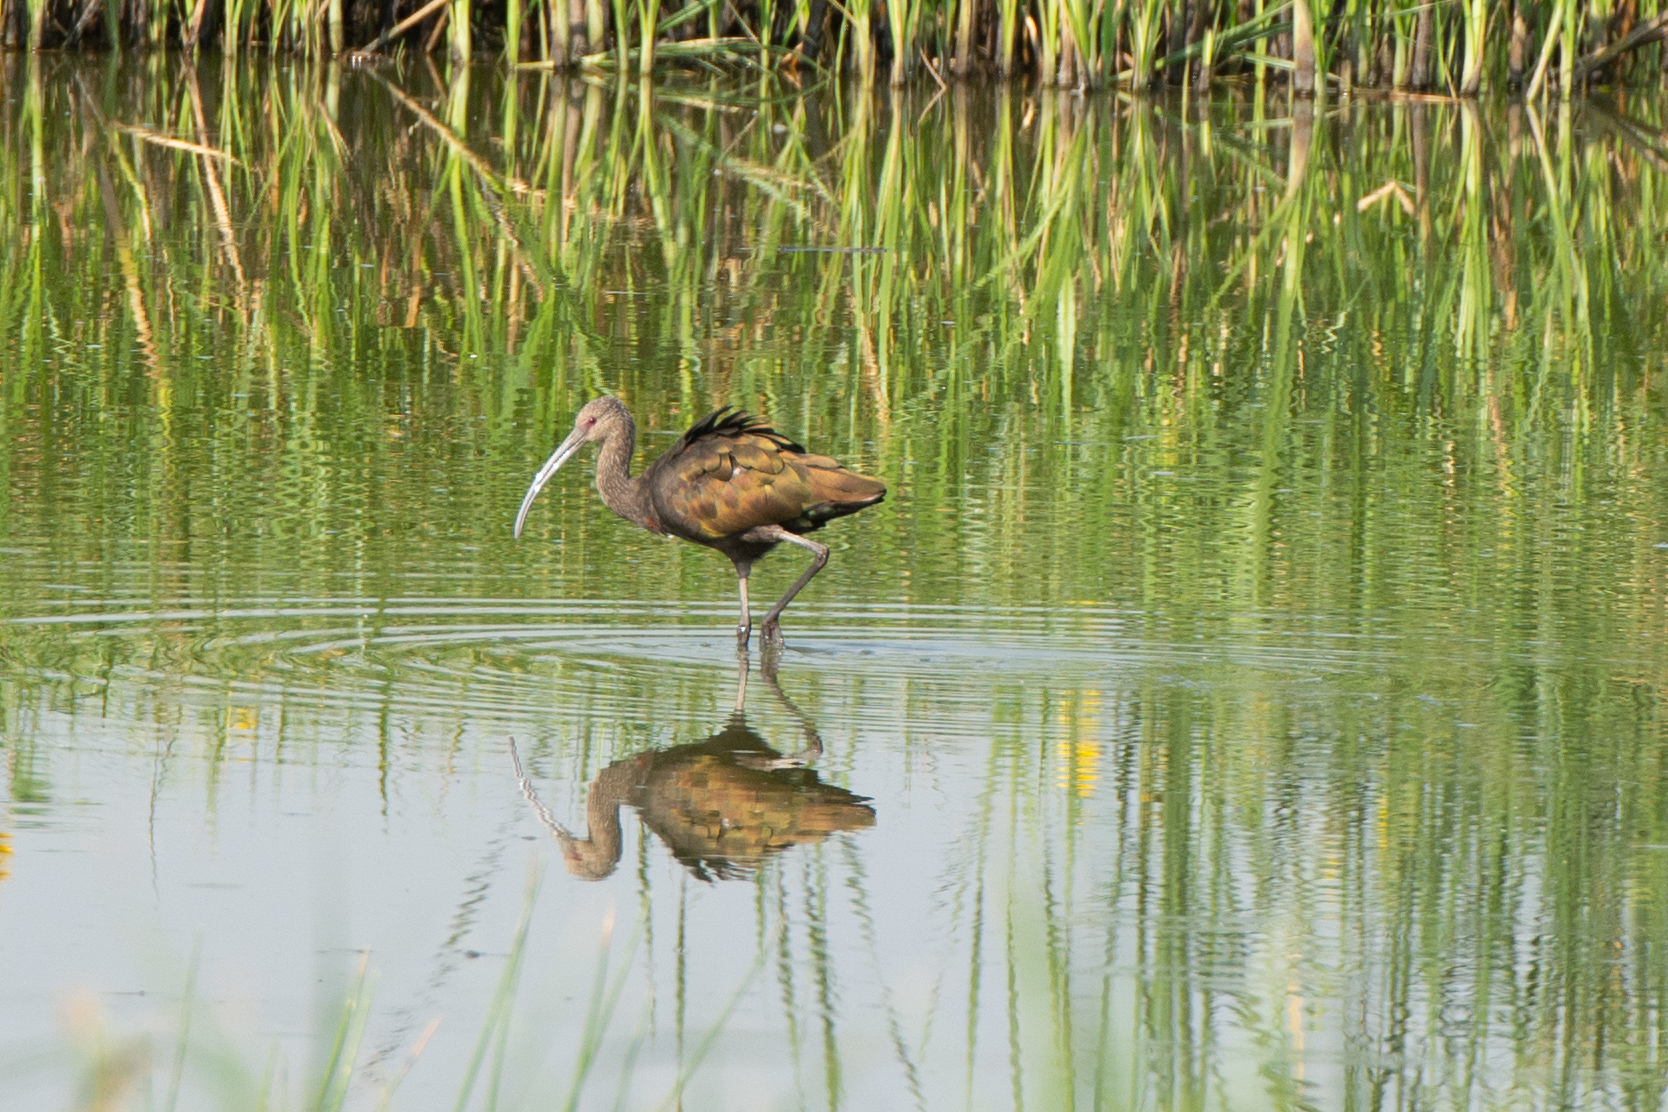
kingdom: Animalia
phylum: Chordata
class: Aves
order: Pelecaniformes
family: Threskiornithidae
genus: Plegadis
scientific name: Plegadis chihi
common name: White-faced ibis
